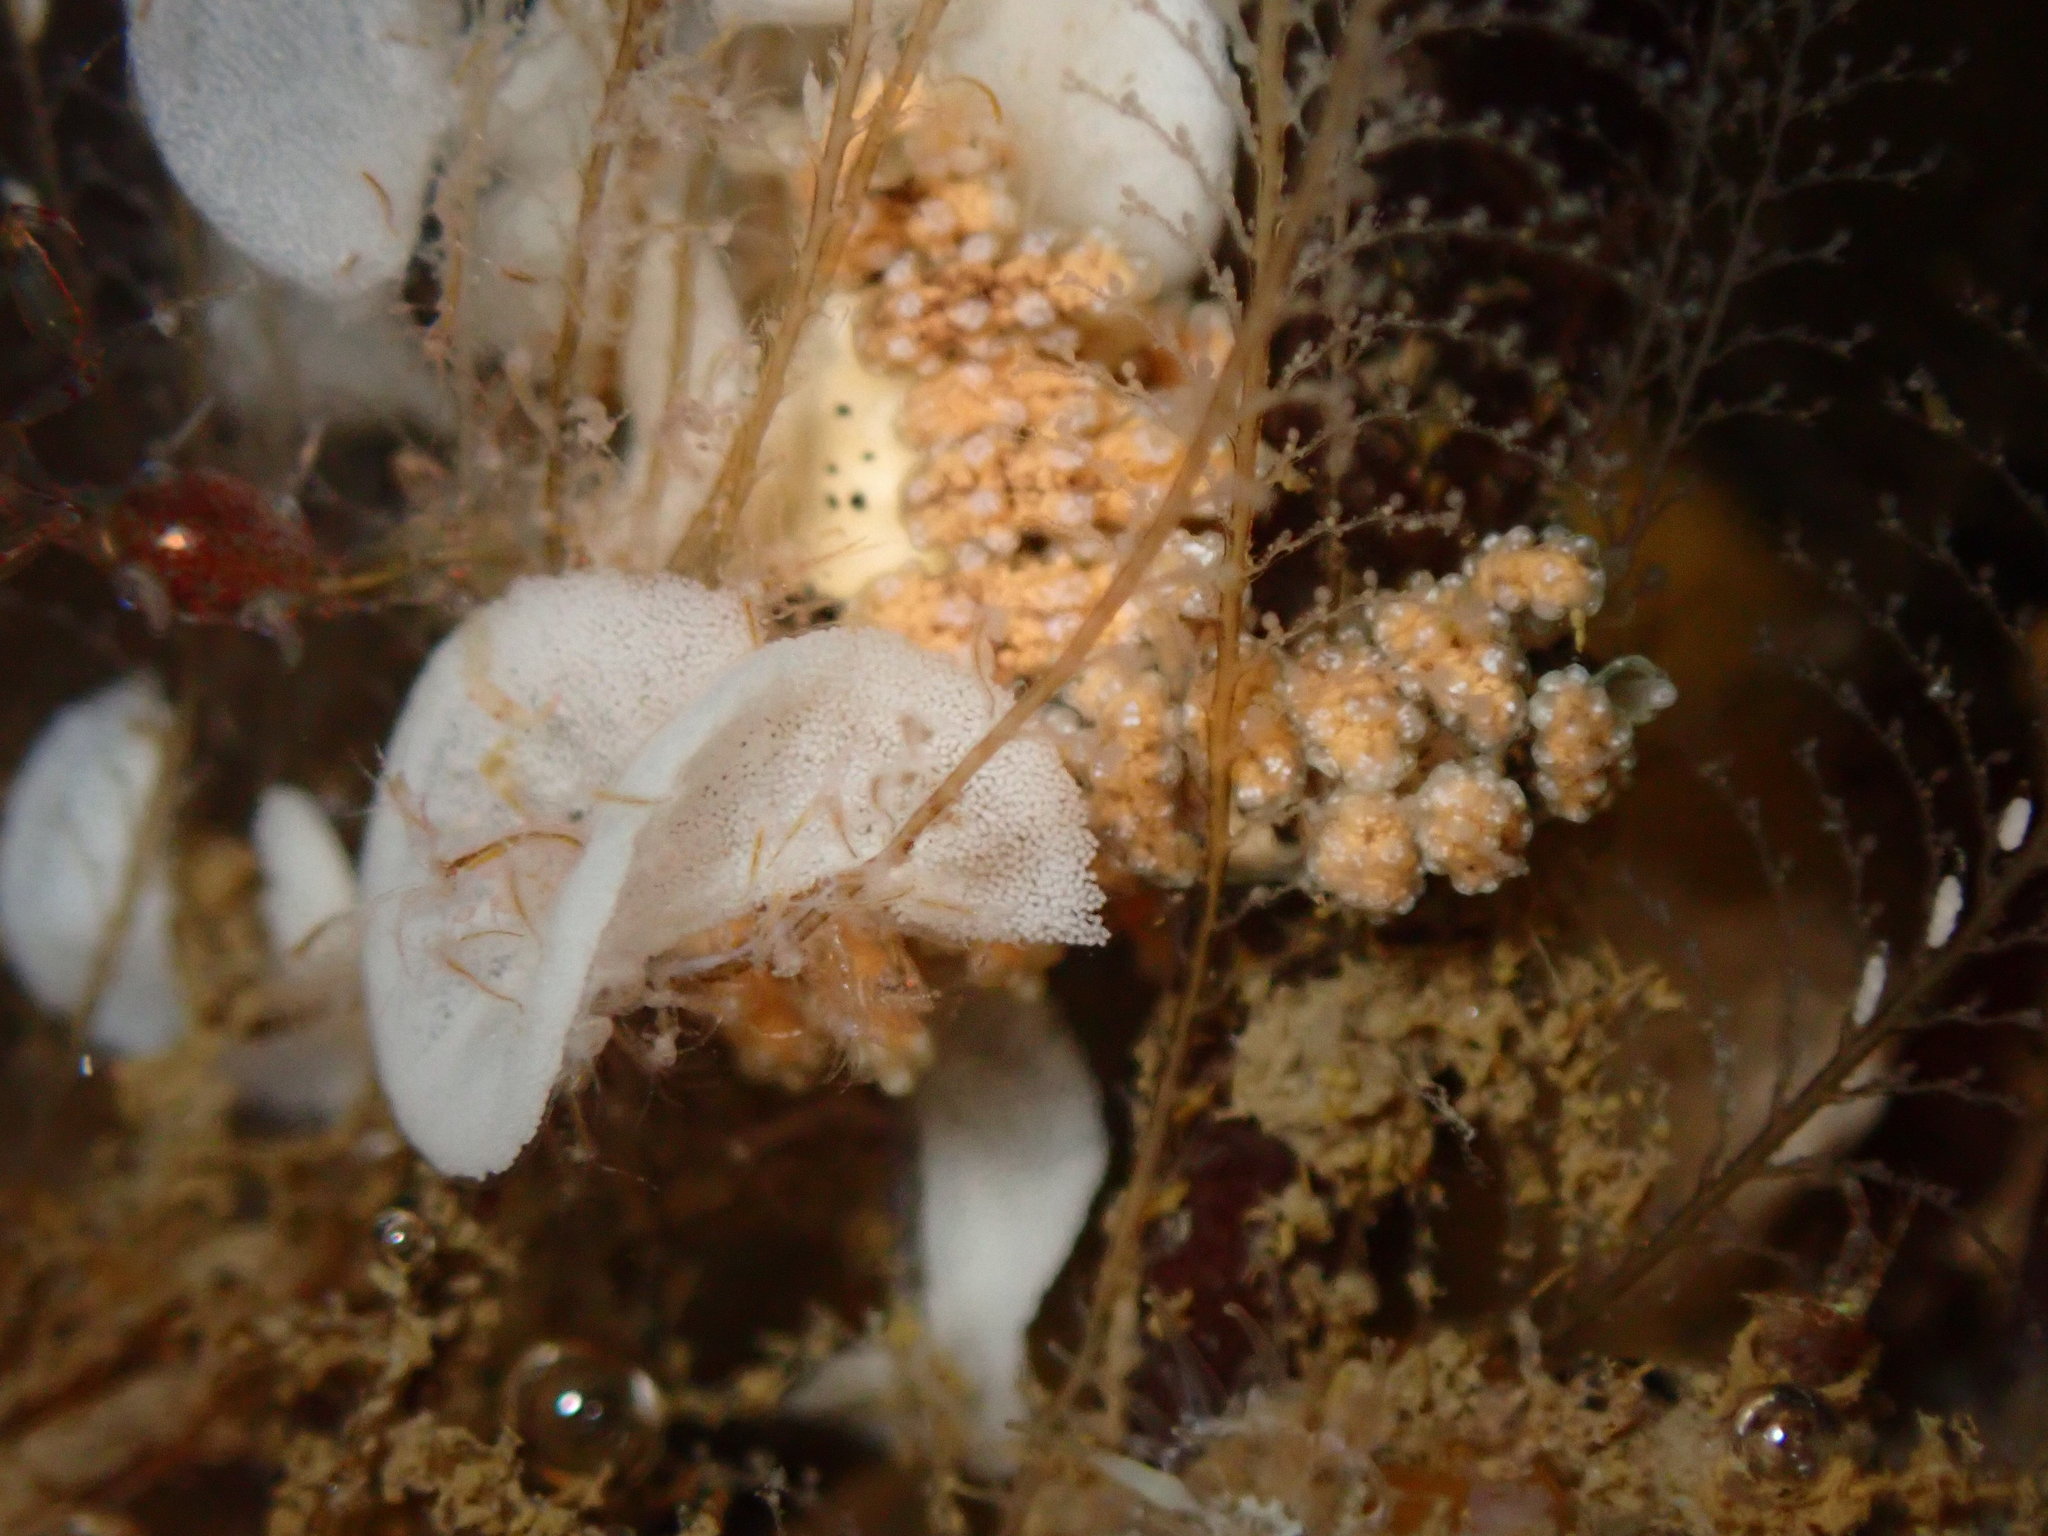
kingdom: Animalia
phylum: Mollusca
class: Gastropoda
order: Nudibranchia
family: Dotidae
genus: Doto
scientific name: Doto kya
